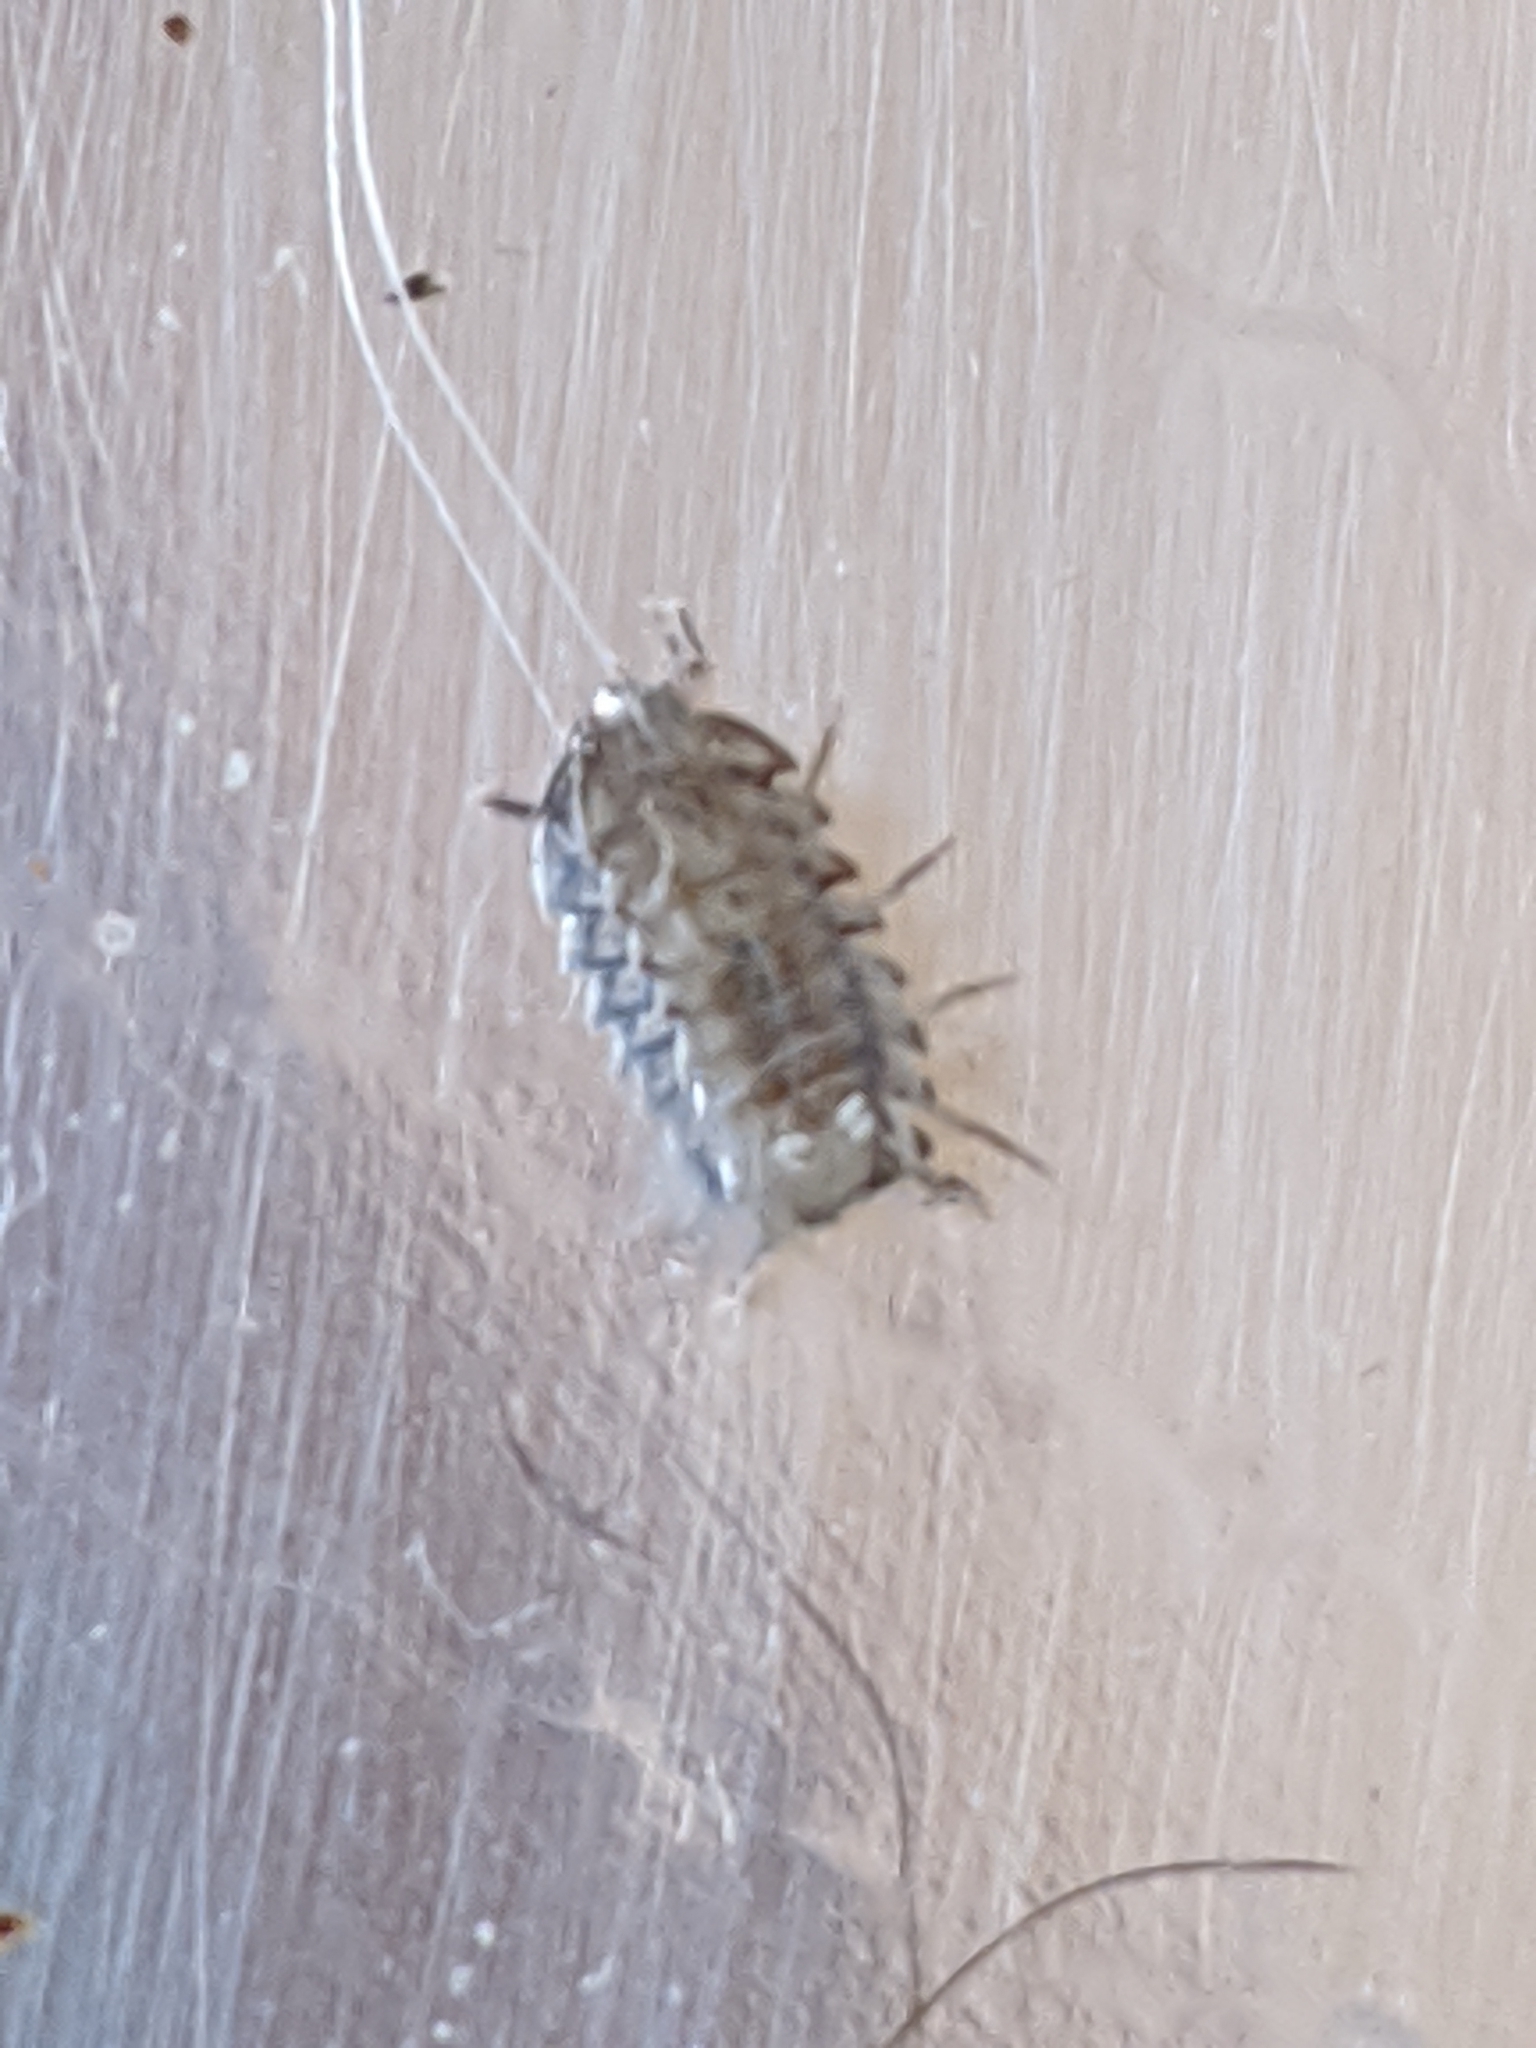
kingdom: Animalia
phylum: Arthropoda
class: Malacostraca
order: Isopoda
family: Armadillidiidae
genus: Armadillidium
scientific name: Armadillidium nasatum
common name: Isopod
